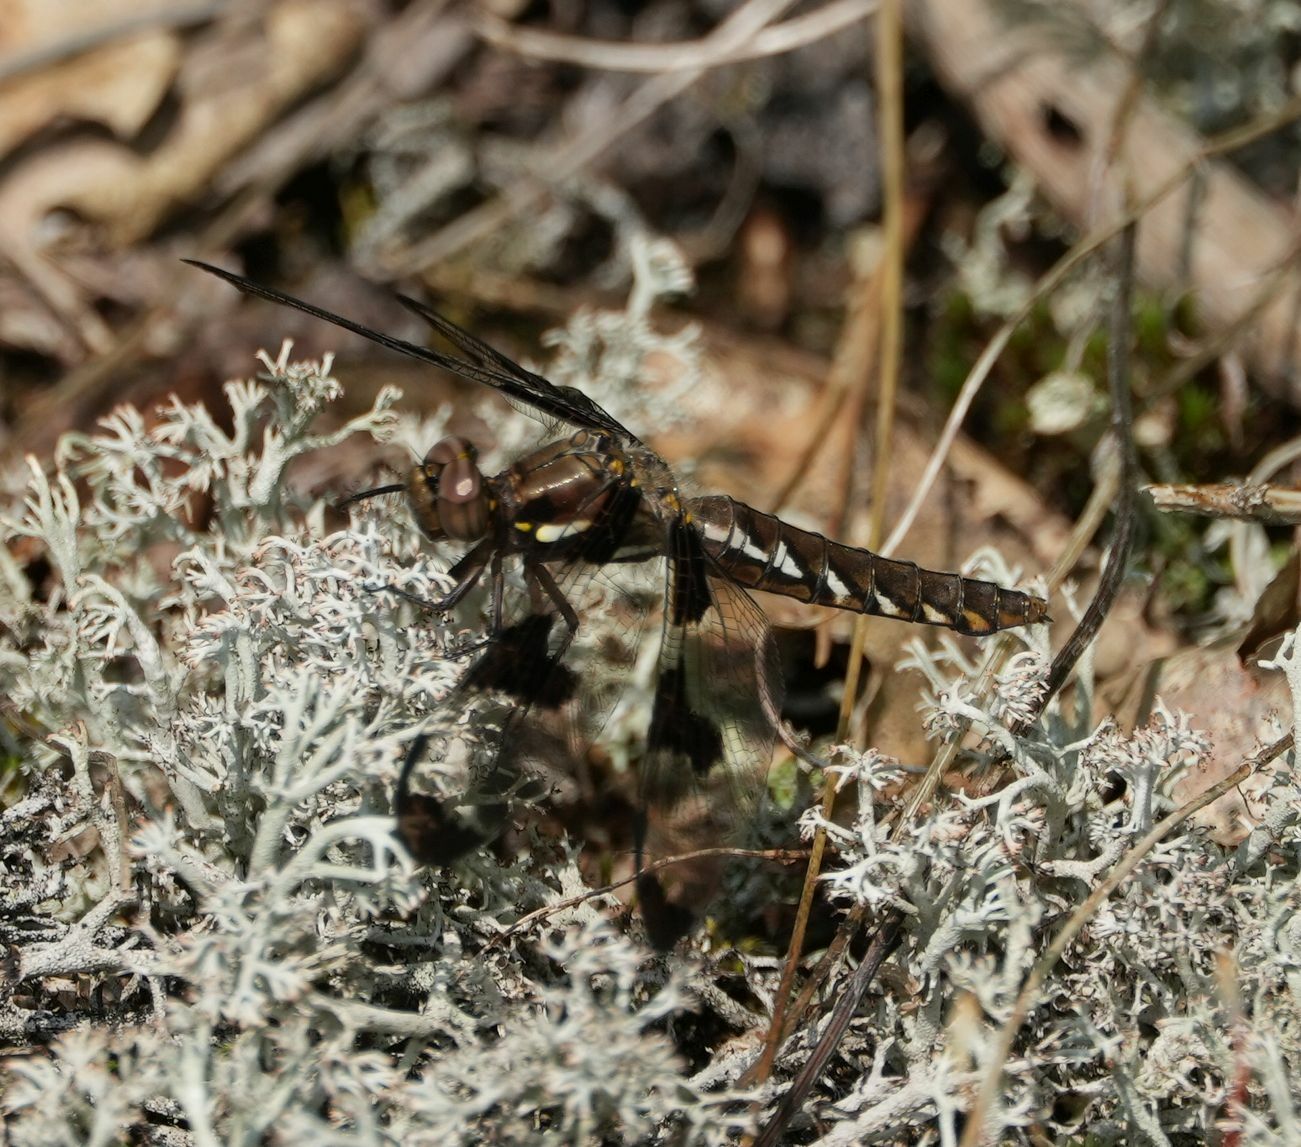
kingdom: Animalia
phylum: Arthropoda
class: Insecta
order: Odonata
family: Libellulidae
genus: Plathemis
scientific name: Plathemis lydia
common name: Common whitetail
